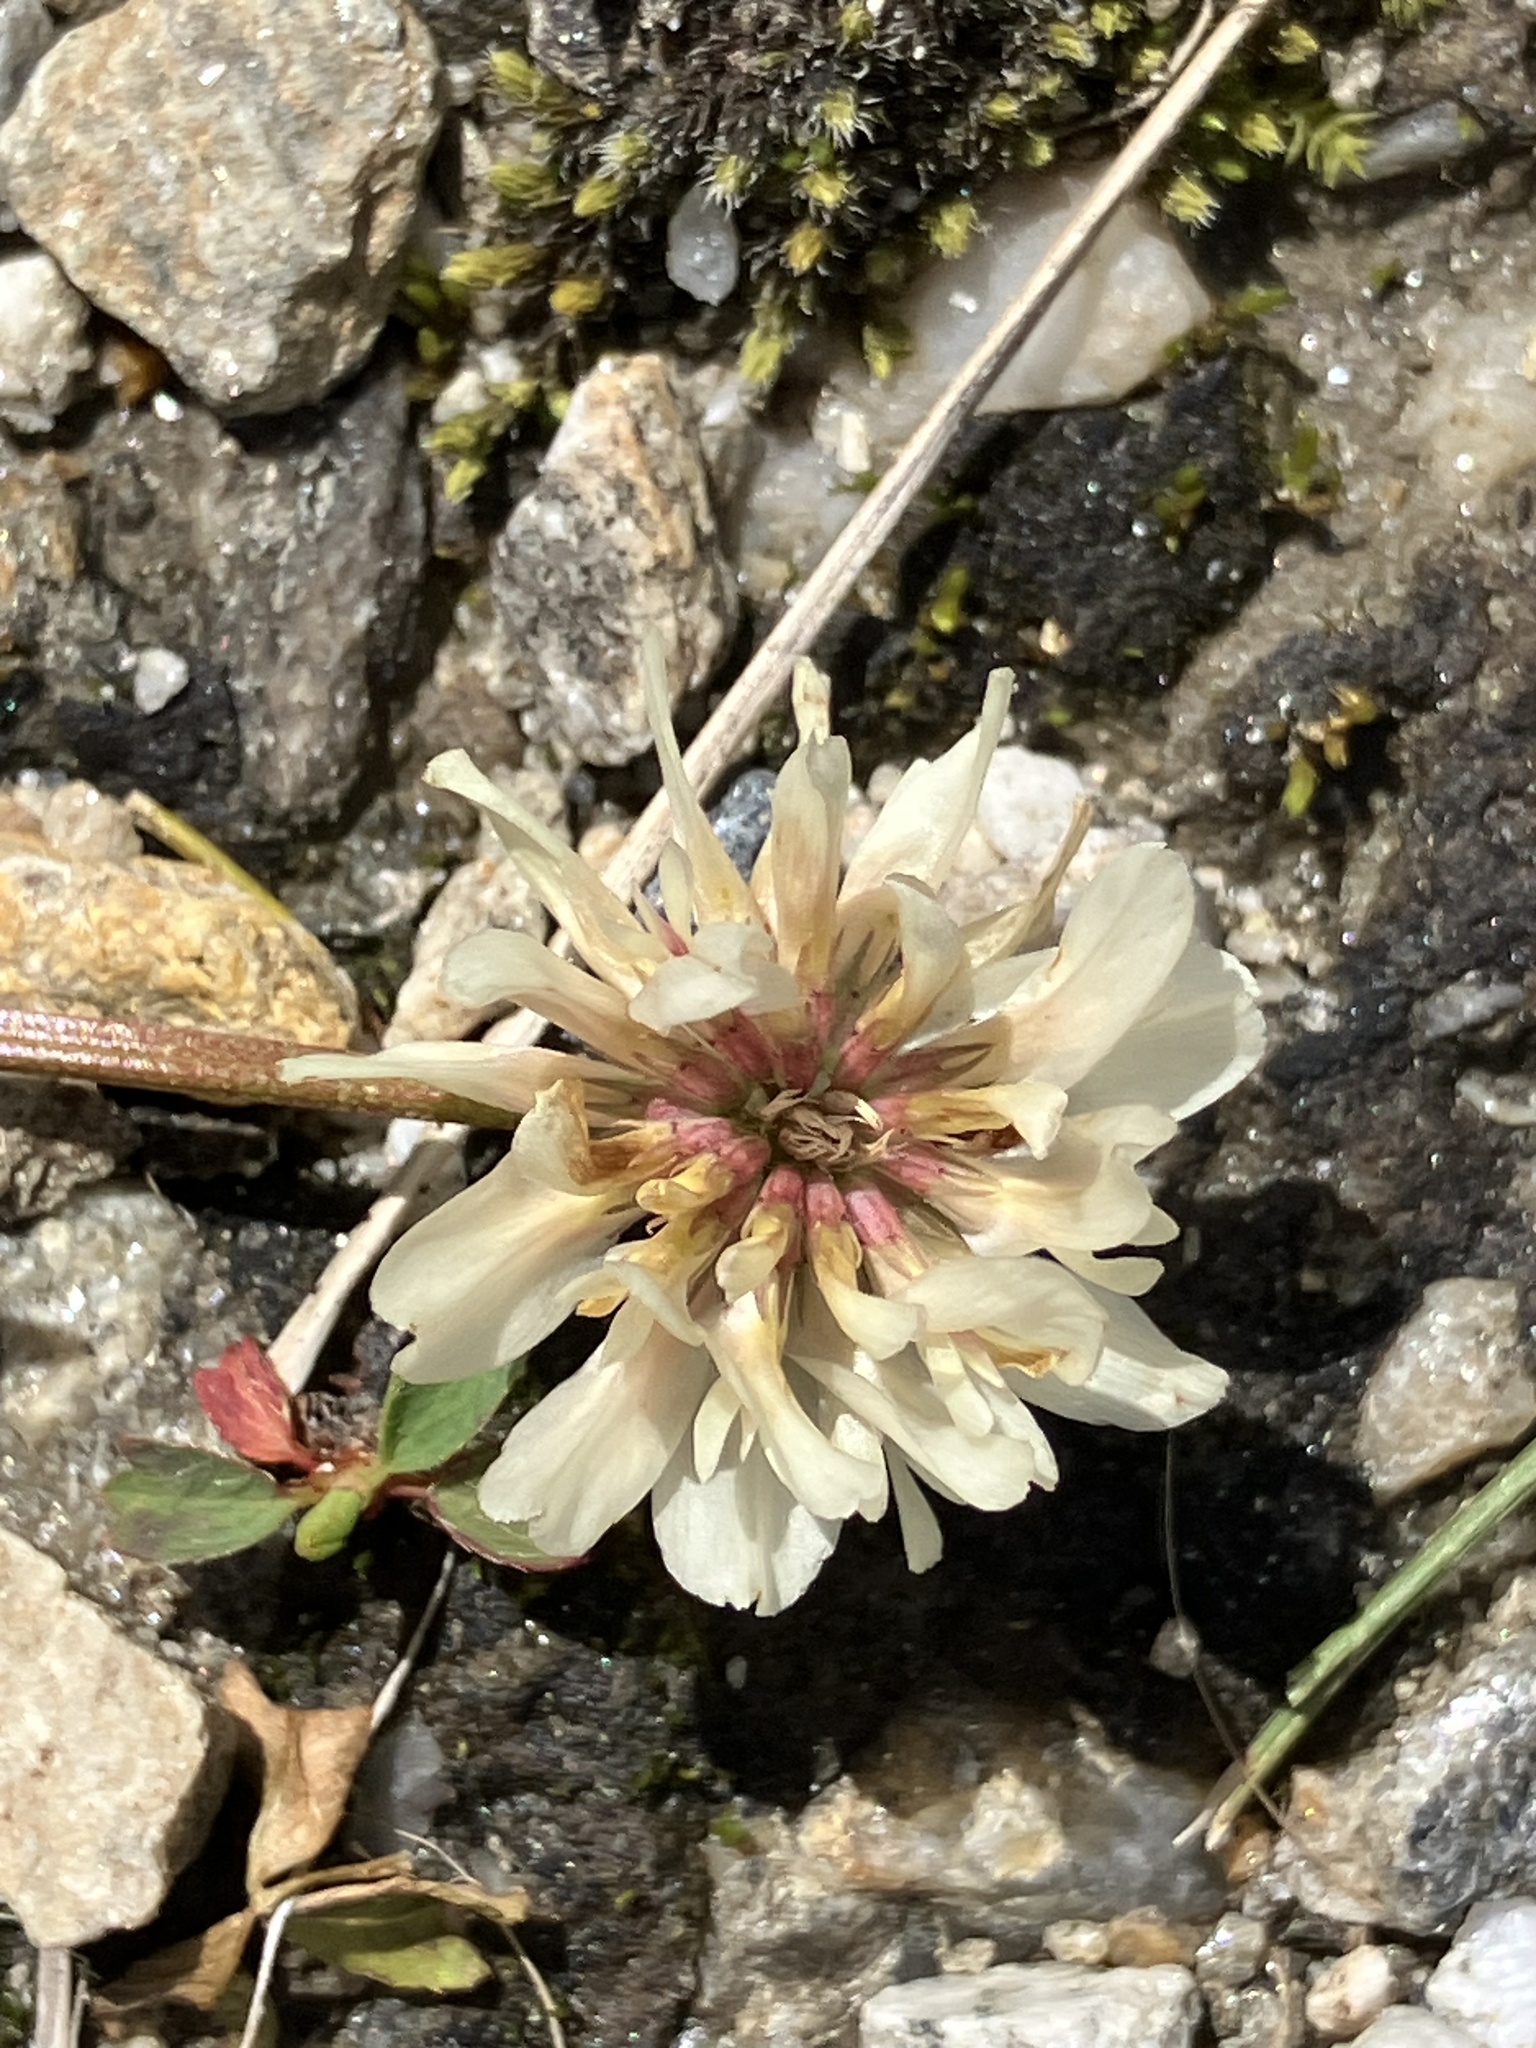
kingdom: Plantae
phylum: Tracheophyta
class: Magnoliopsida
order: Fabales
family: Fabaceae
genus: Trifolium
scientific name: Trifolium repens
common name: White clover
